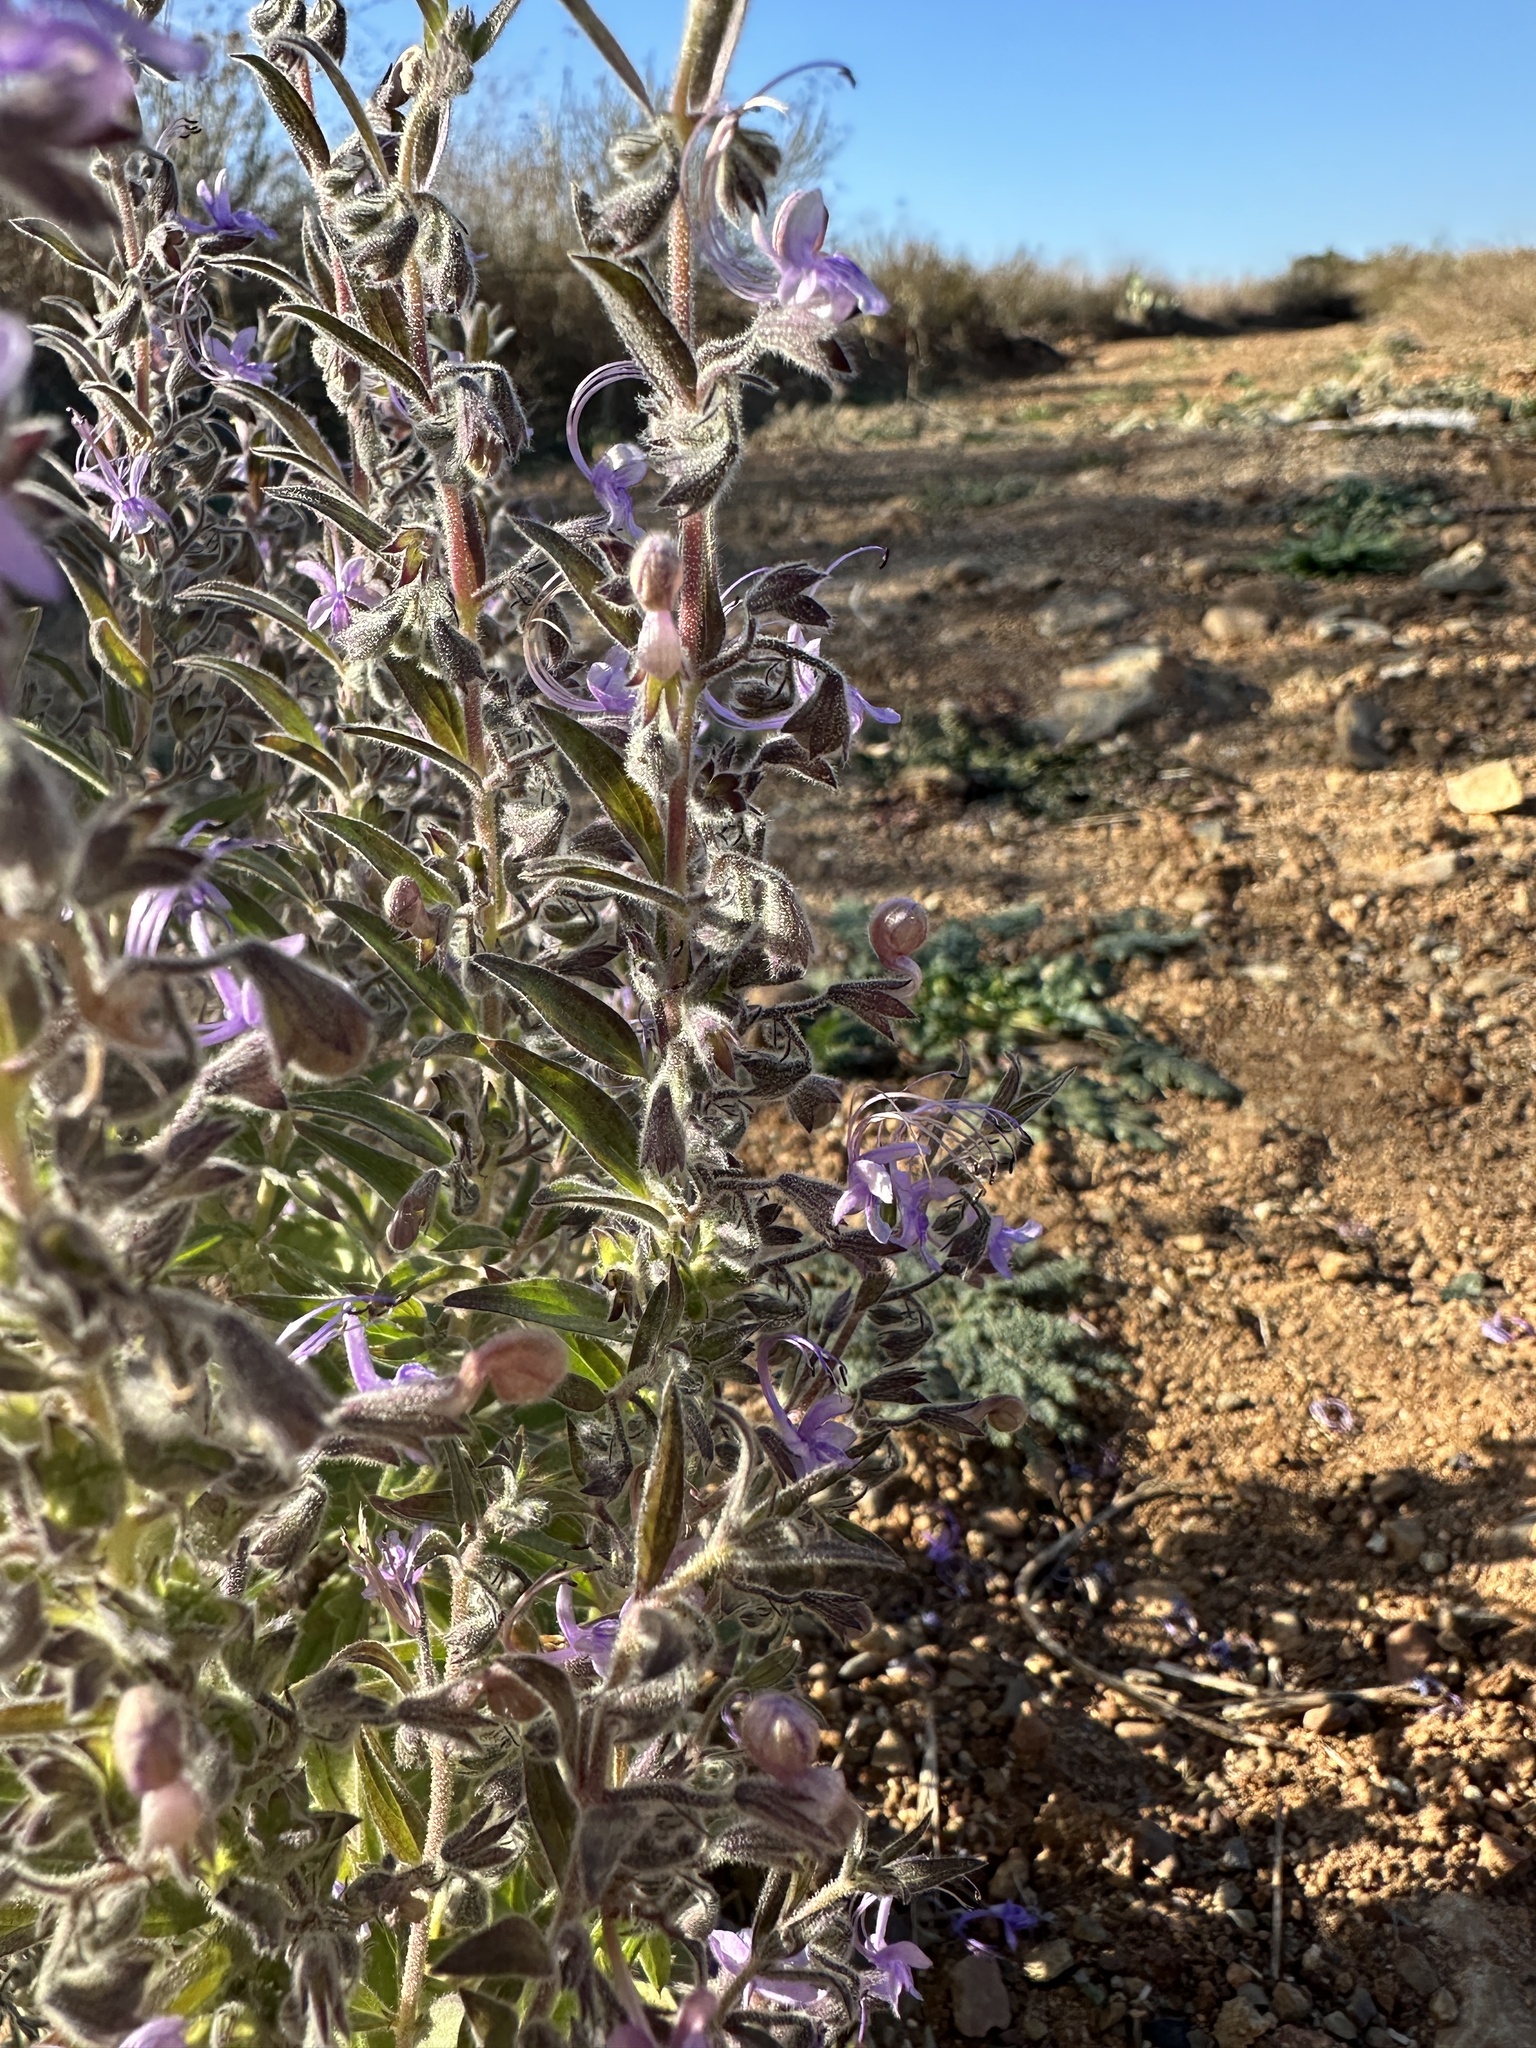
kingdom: Plantae
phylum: Tracheophyta
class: Magnoliopsida
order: Lamiales
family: Lamiaceae
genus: Trichostema
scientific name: Trichostema lanceolatum
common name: Vinegar-weed
